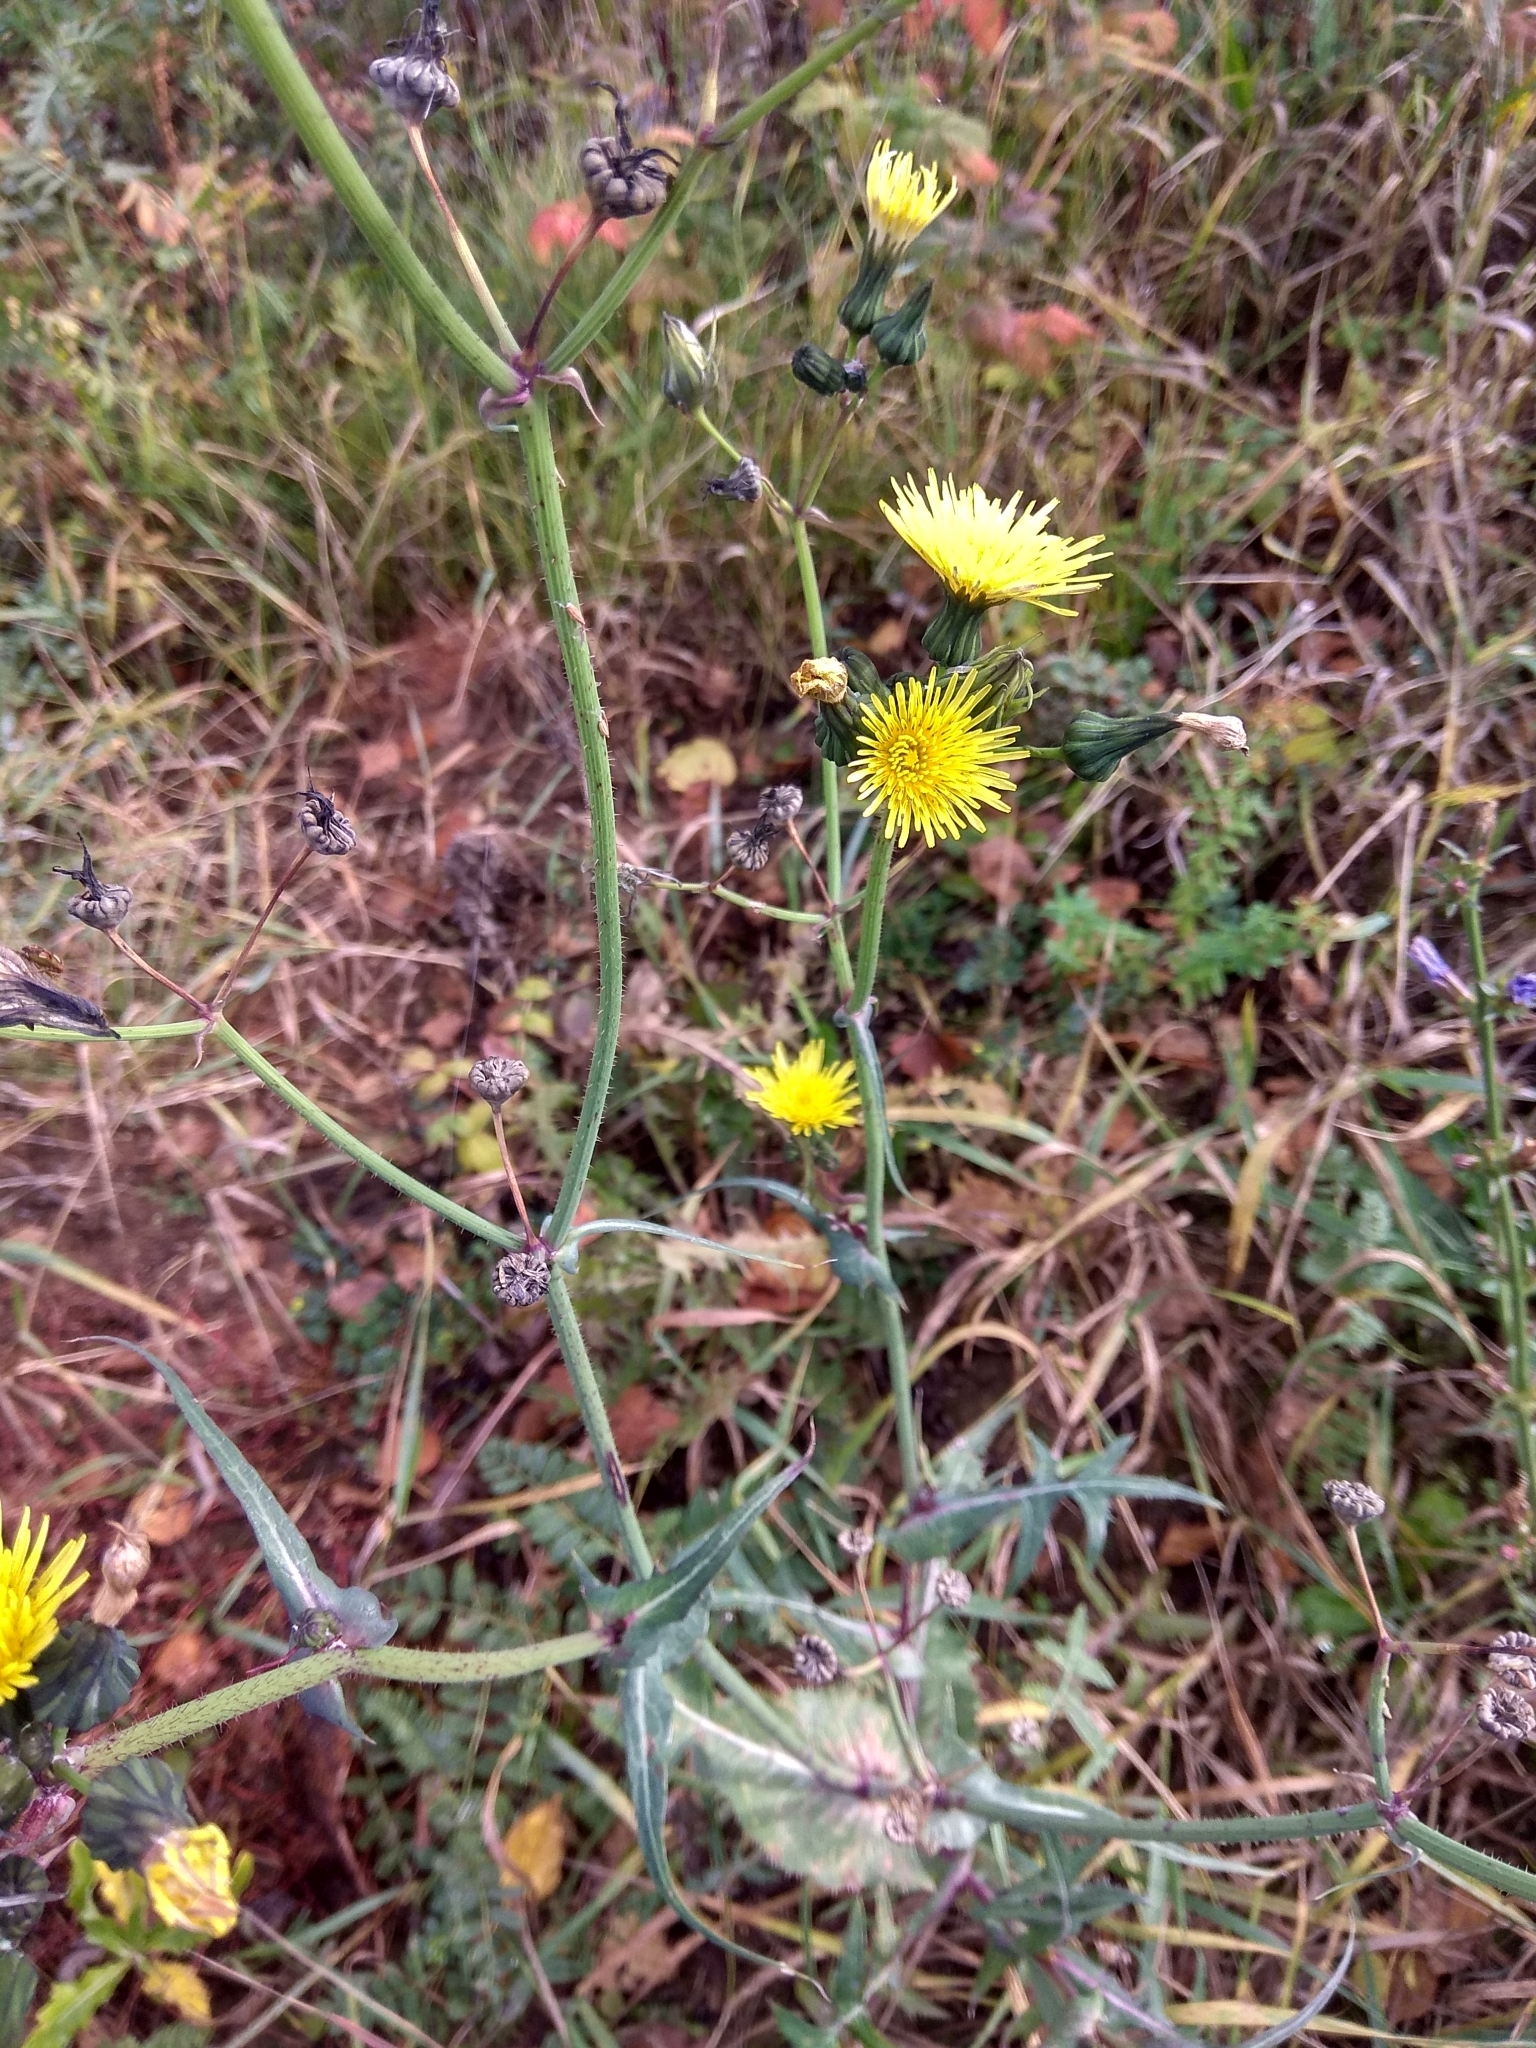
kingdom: Plantae
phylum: Tracheophyta
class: Magnoliopsida
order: Asterales
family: Asteraceae
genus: Sonchus
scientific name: Sonchus oleraceus
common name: Common sowthistle
